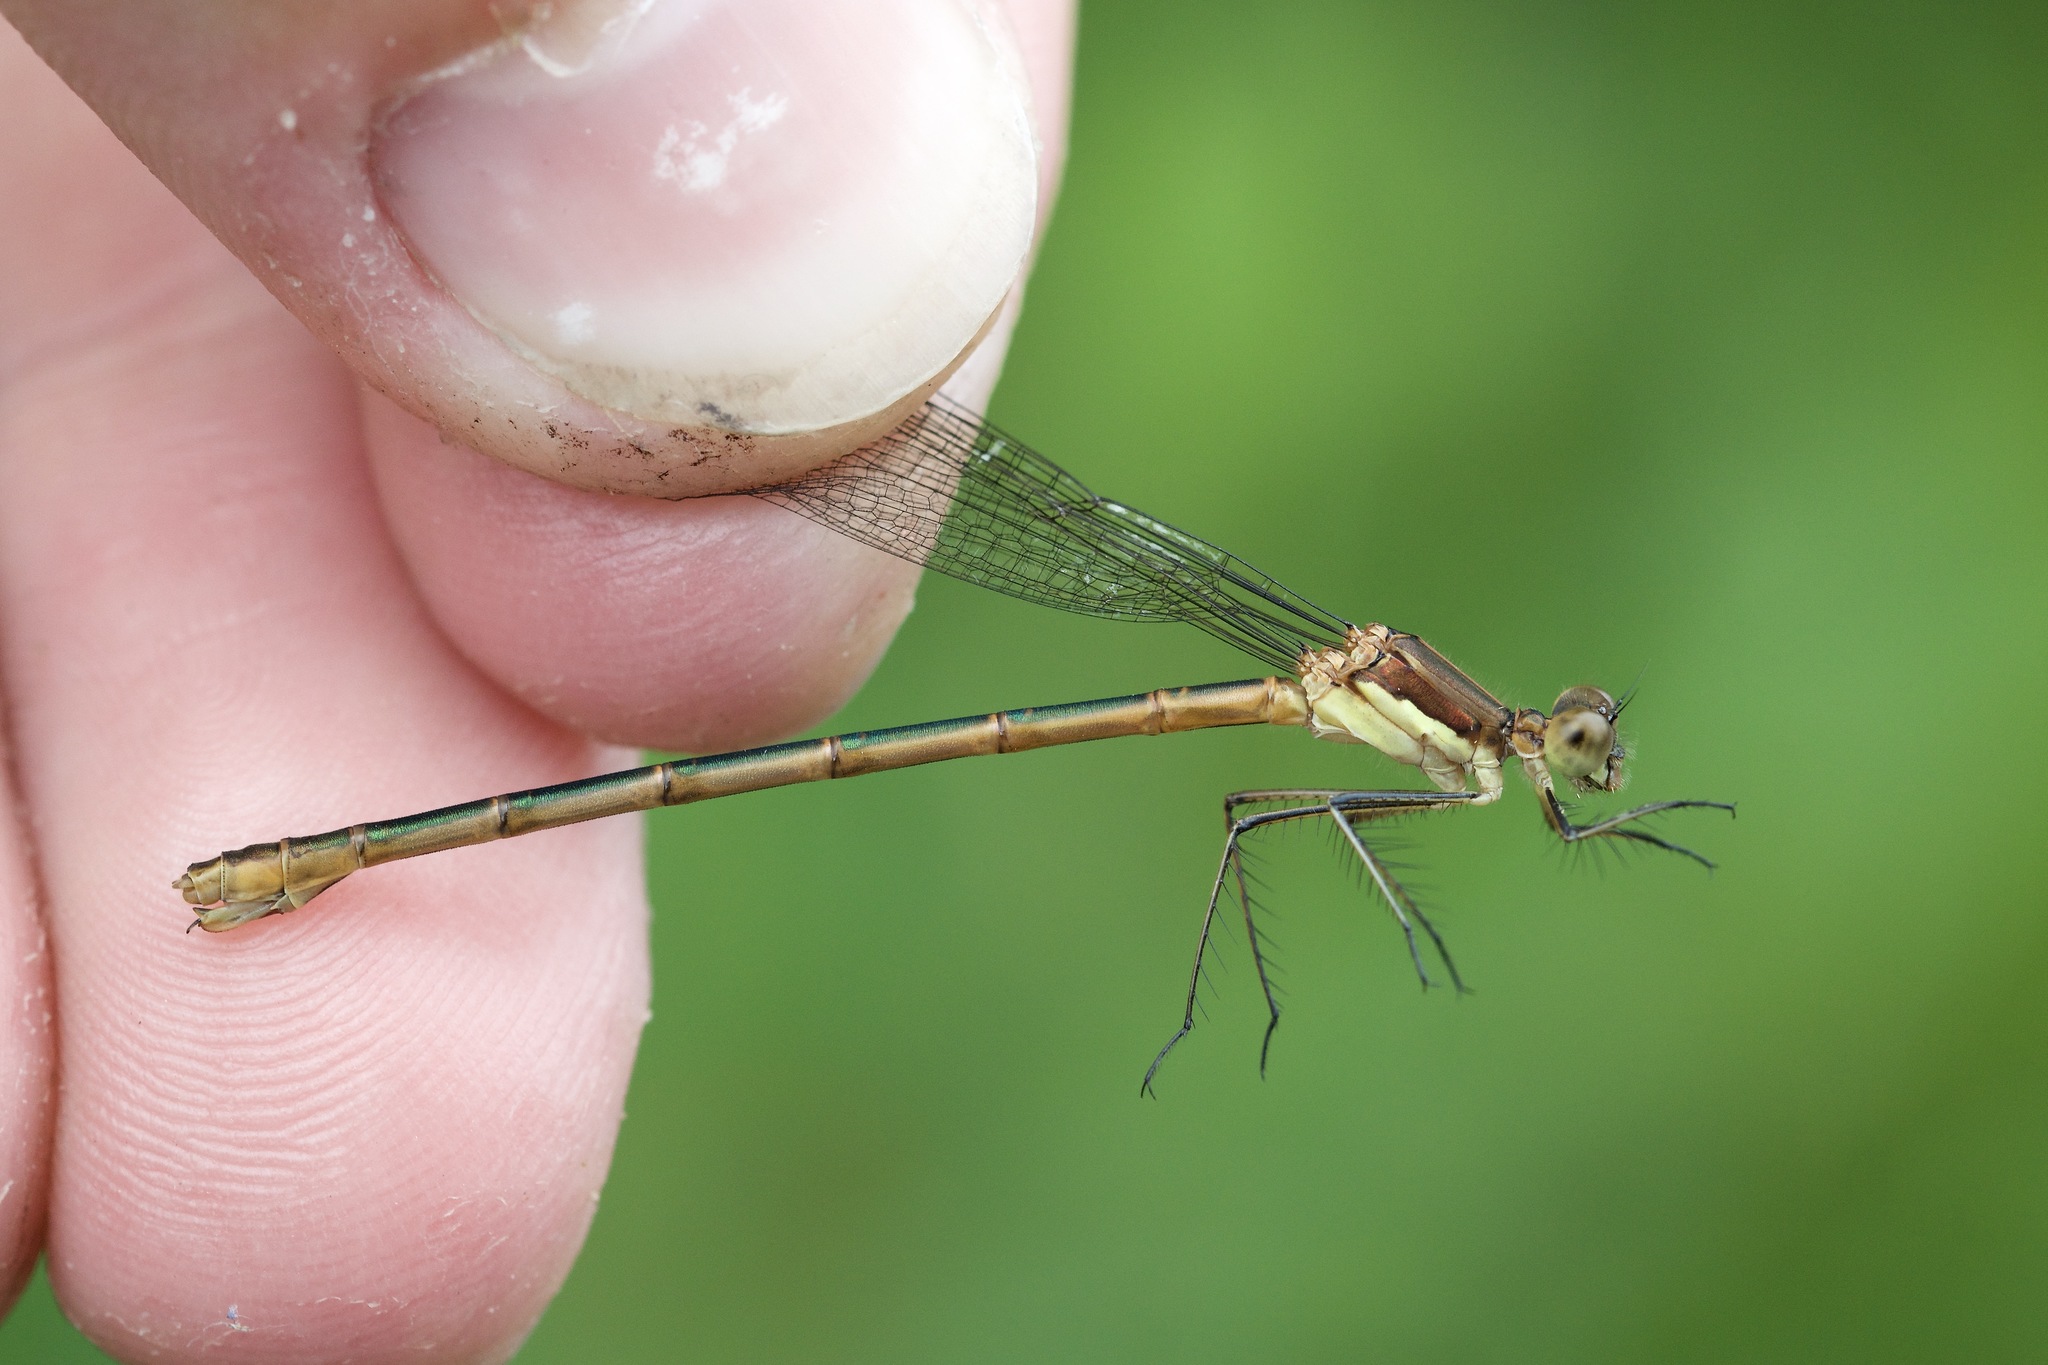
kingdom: Animalia
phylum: Arthropoda
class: Insecta
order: Odonata
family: Lestidae
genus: Lestes
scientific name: Lestes disjunctus
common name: Northern spreadwing
